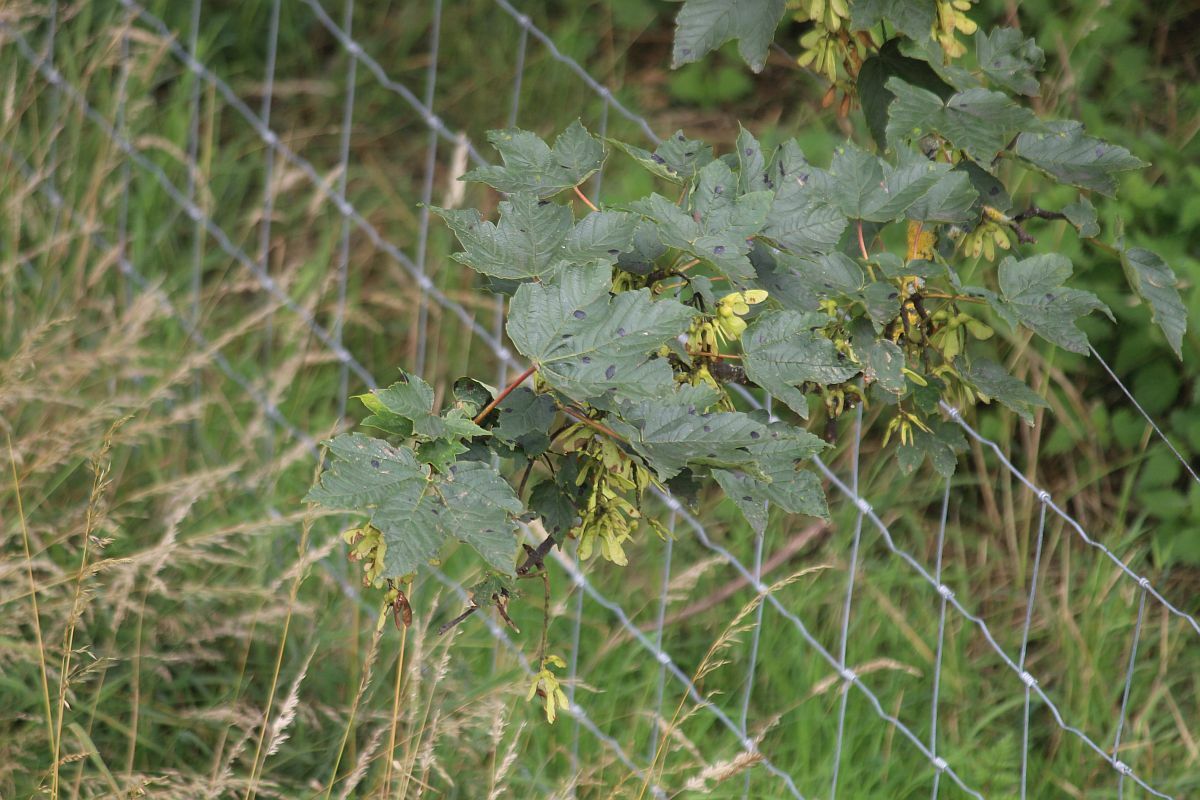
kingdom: Plantae
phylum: Tracheophyta
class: Magnoliopsida
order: Sapindales
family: Sapindaceae
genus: Acer
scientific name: Acer pseudoplatanus
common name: Sycamore
